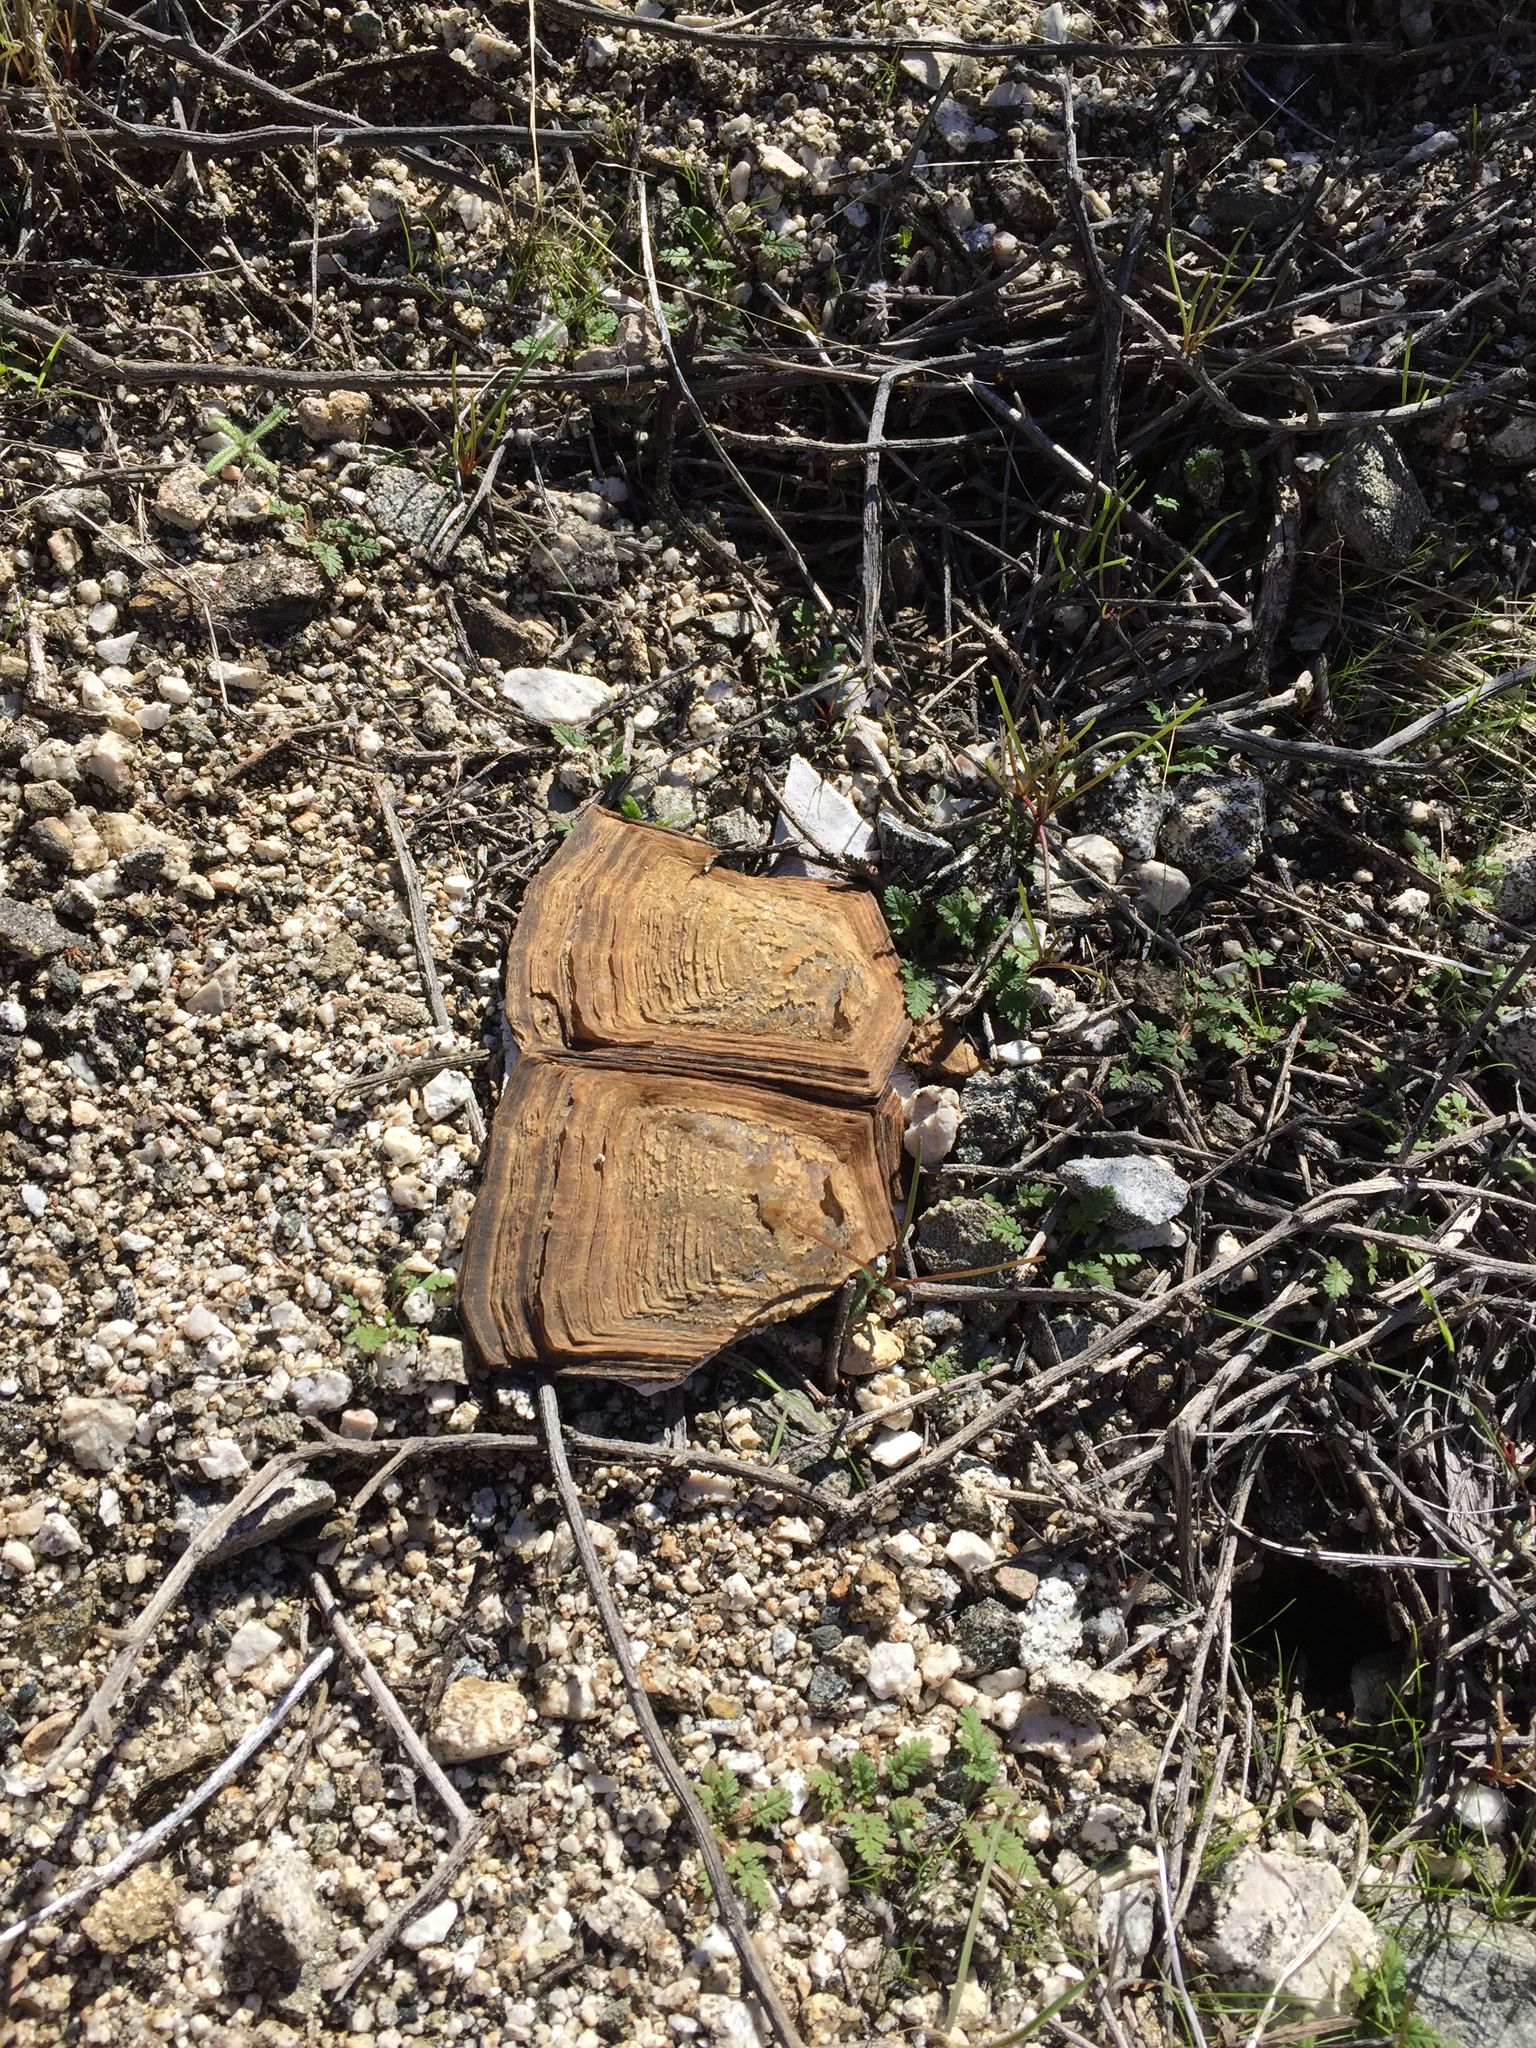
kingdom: Animalia
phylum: Chordata
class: Testudines
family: Testudinidae
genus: Gopherus
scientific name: Gopherus agassizii
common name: Mojave desert tortoise
